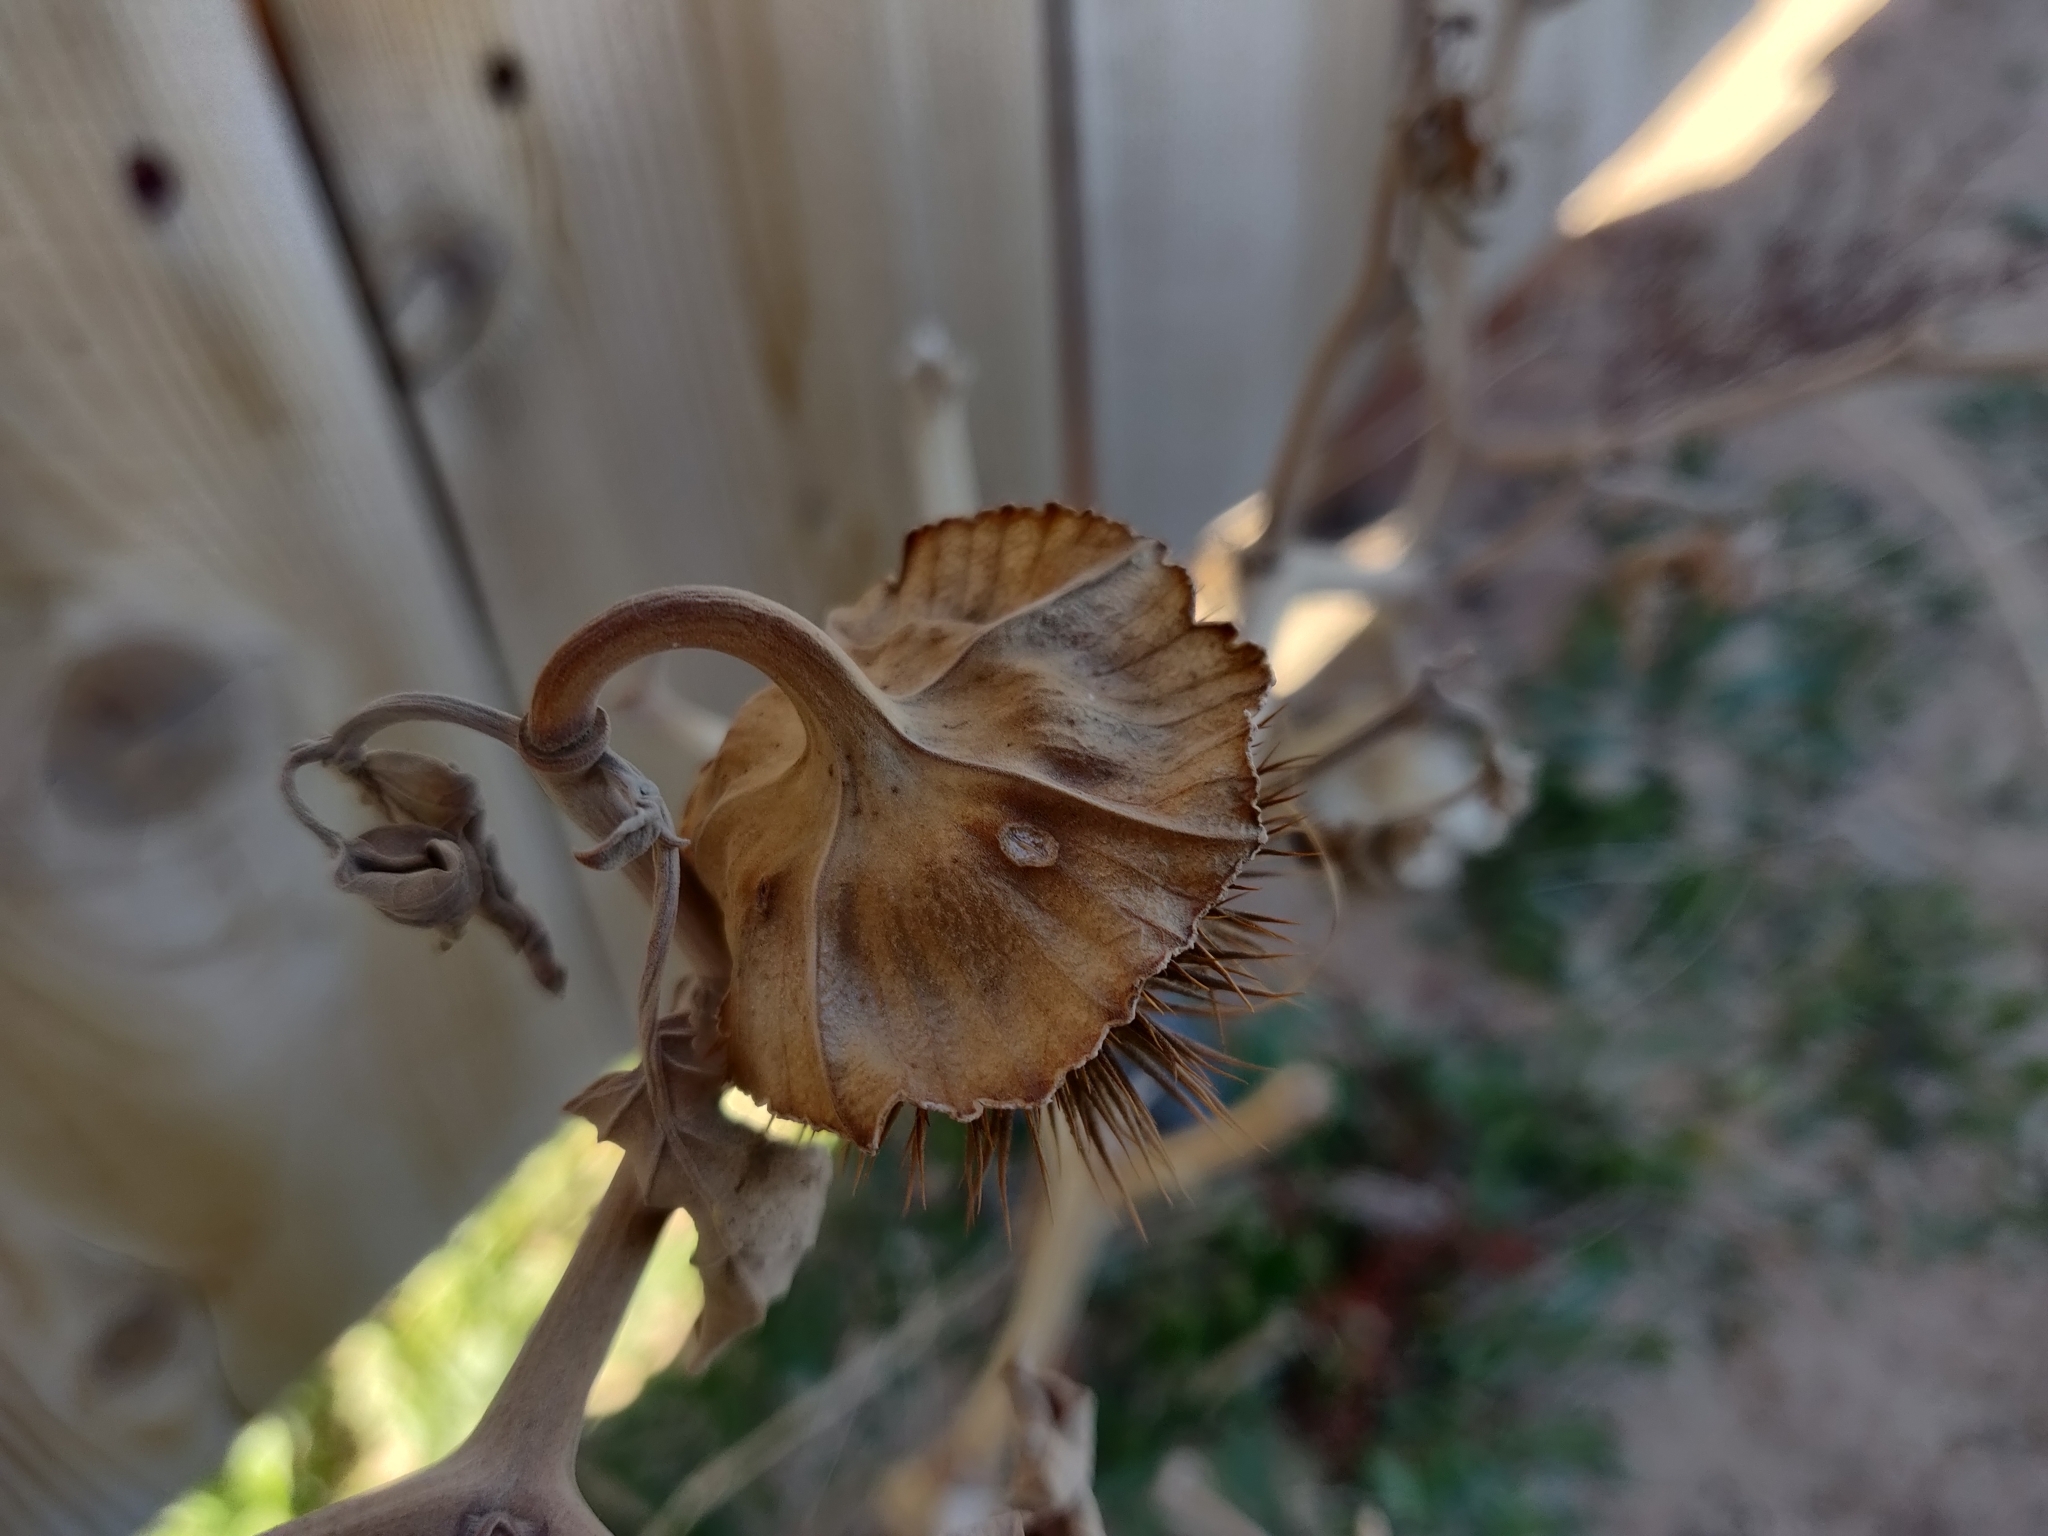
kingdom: Plantae
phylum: Tracheophyta
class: Magnoliopsida
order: Solanales
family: Solanaceae
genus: Datura
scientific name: Datura wrightii
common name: Sacred thorn-apple
